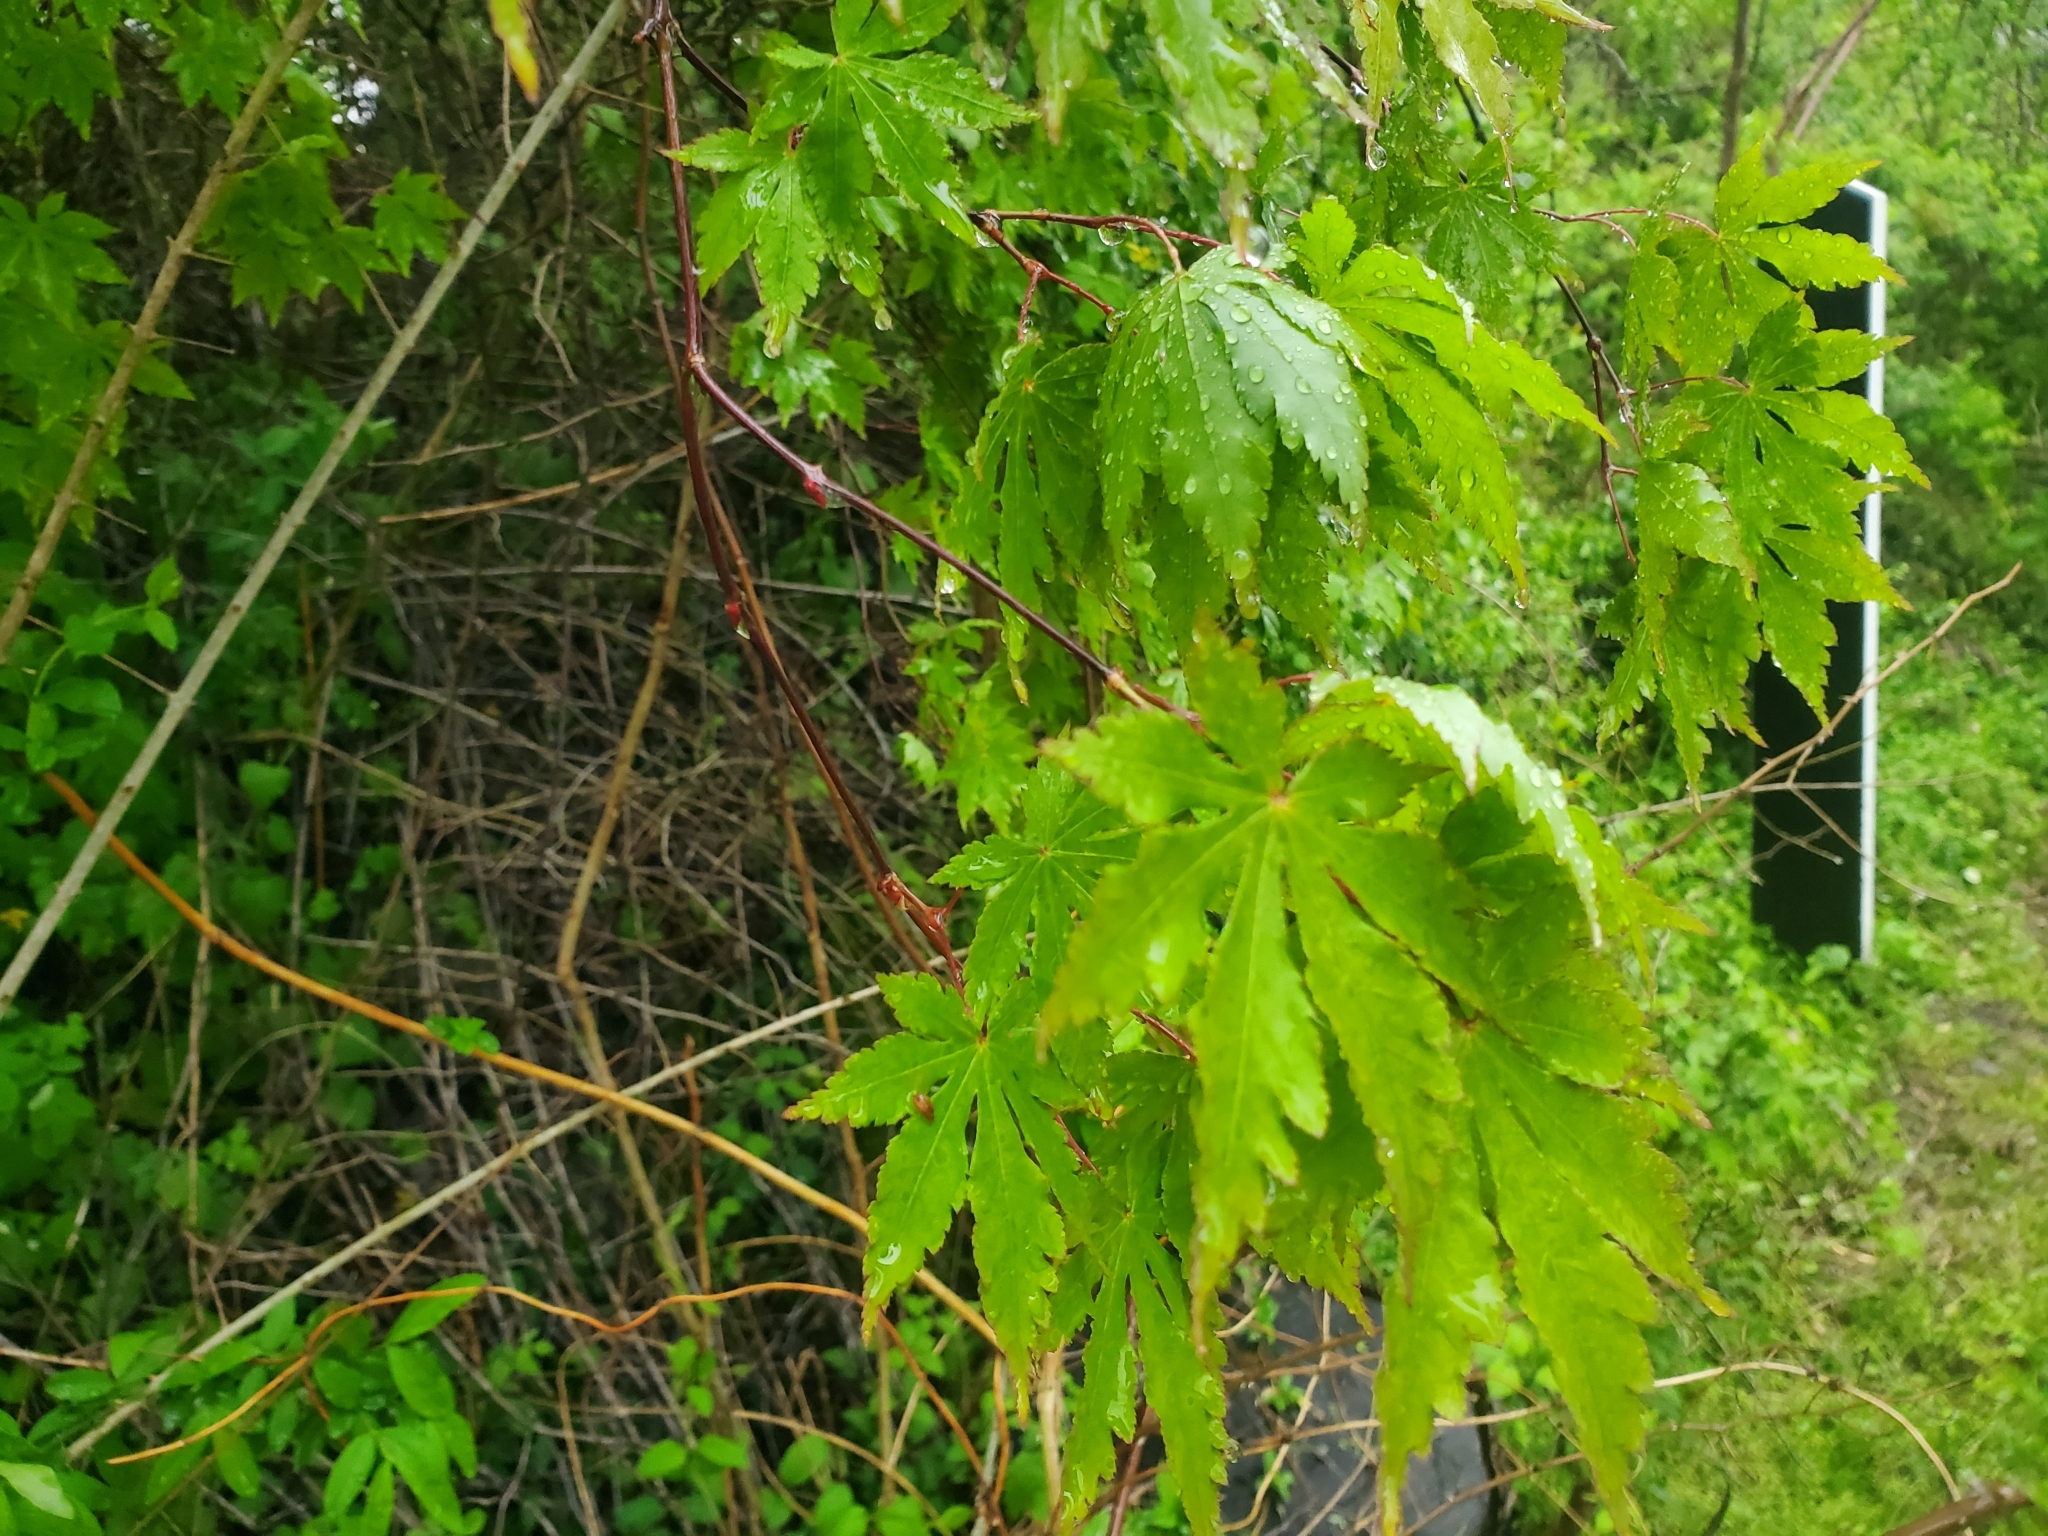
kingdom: Plantae
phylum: Tracheophyta
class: Magnoliopsida
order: Sapindales
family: Sapindaceae
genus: Acer
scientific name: Acer palmatum
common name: Japanese maple
